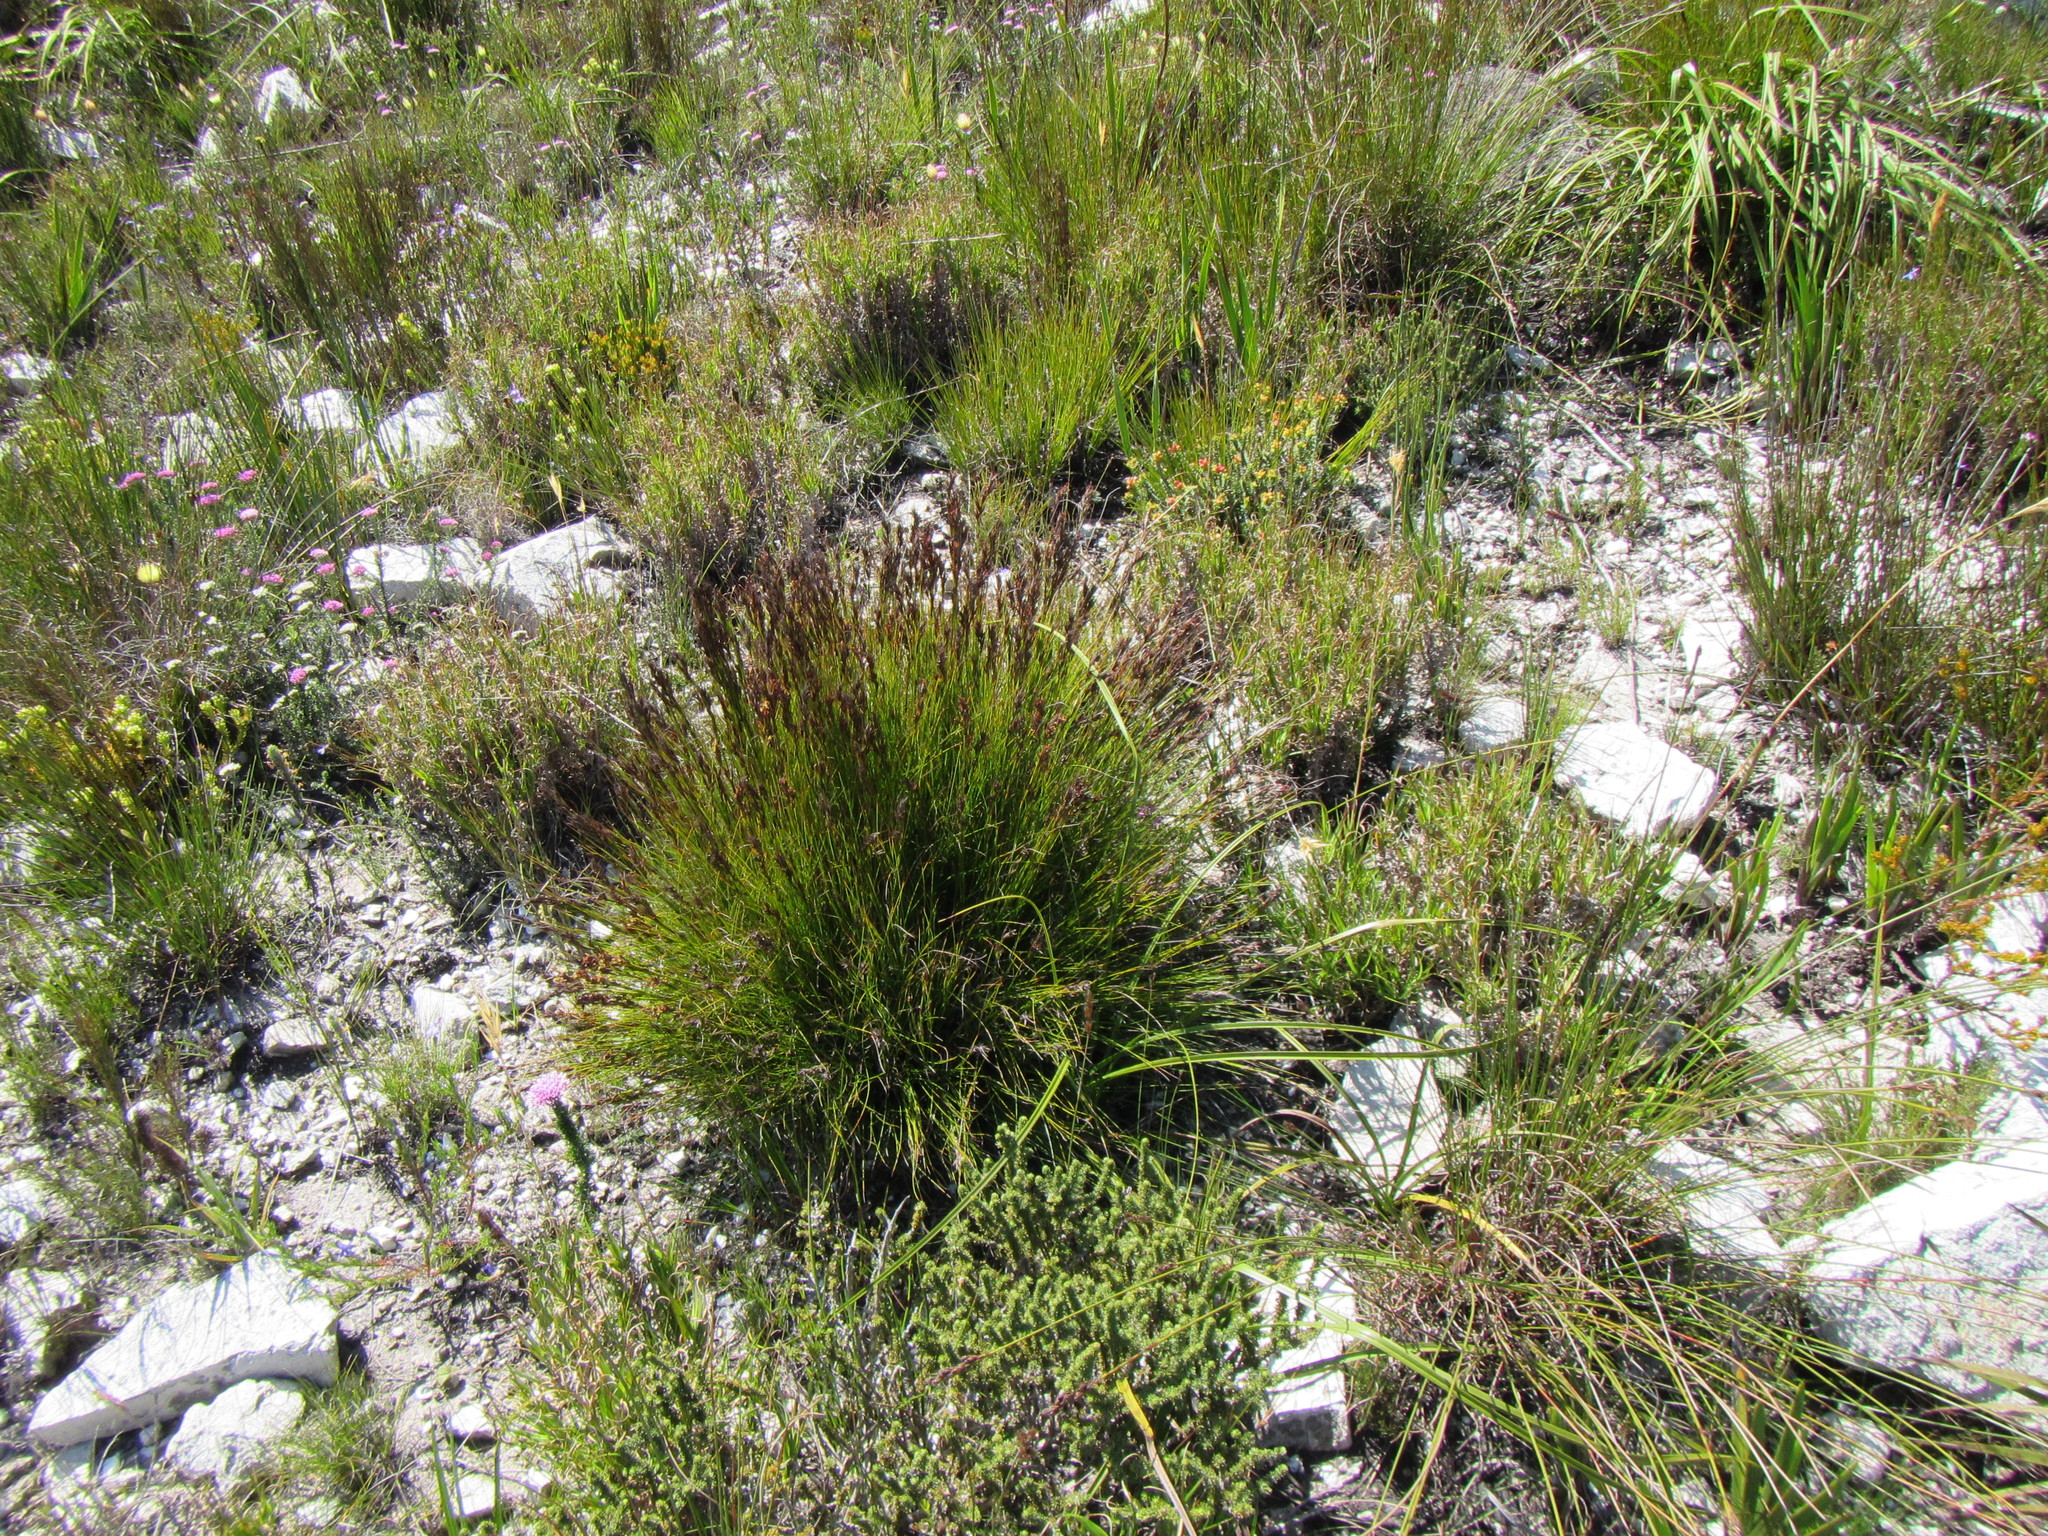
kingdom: Plantae
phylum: Tracheophyta
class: Liliopsida
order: Poales
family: Cyperaceae
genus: Tetraria
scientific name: Tetraria fasciata
